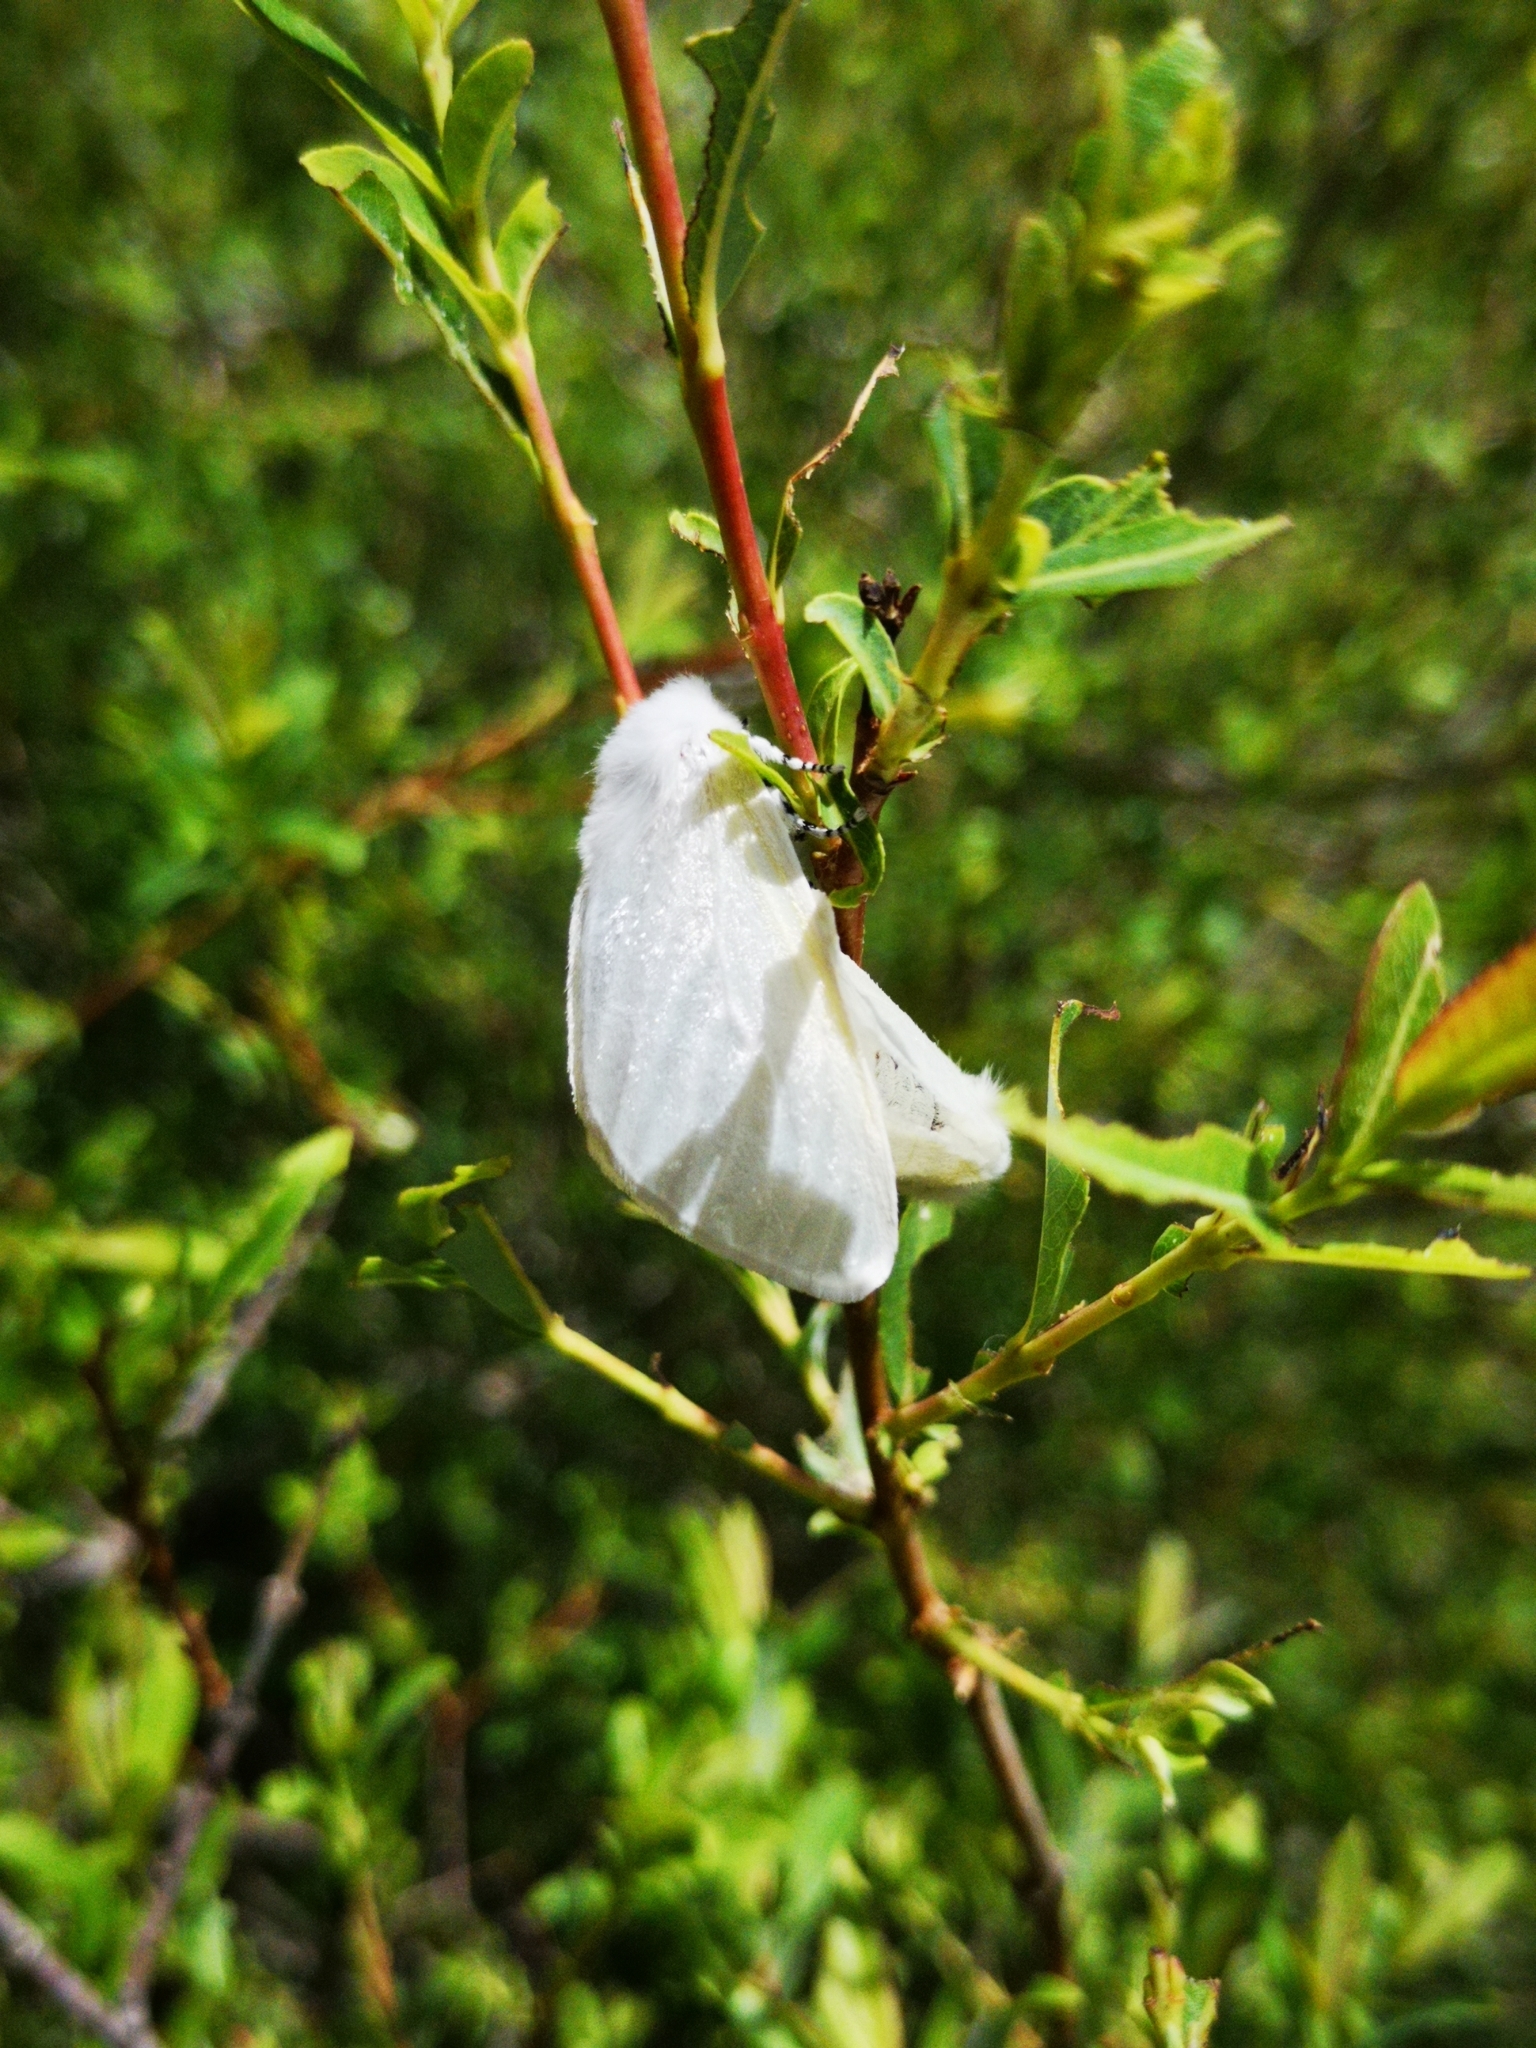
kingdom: Animalia
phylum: Arthropoda
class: Insecta
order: Lepidoptera
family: Erebidae
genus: Leucoma
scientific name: Leucoma salicis
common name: White satin moth
